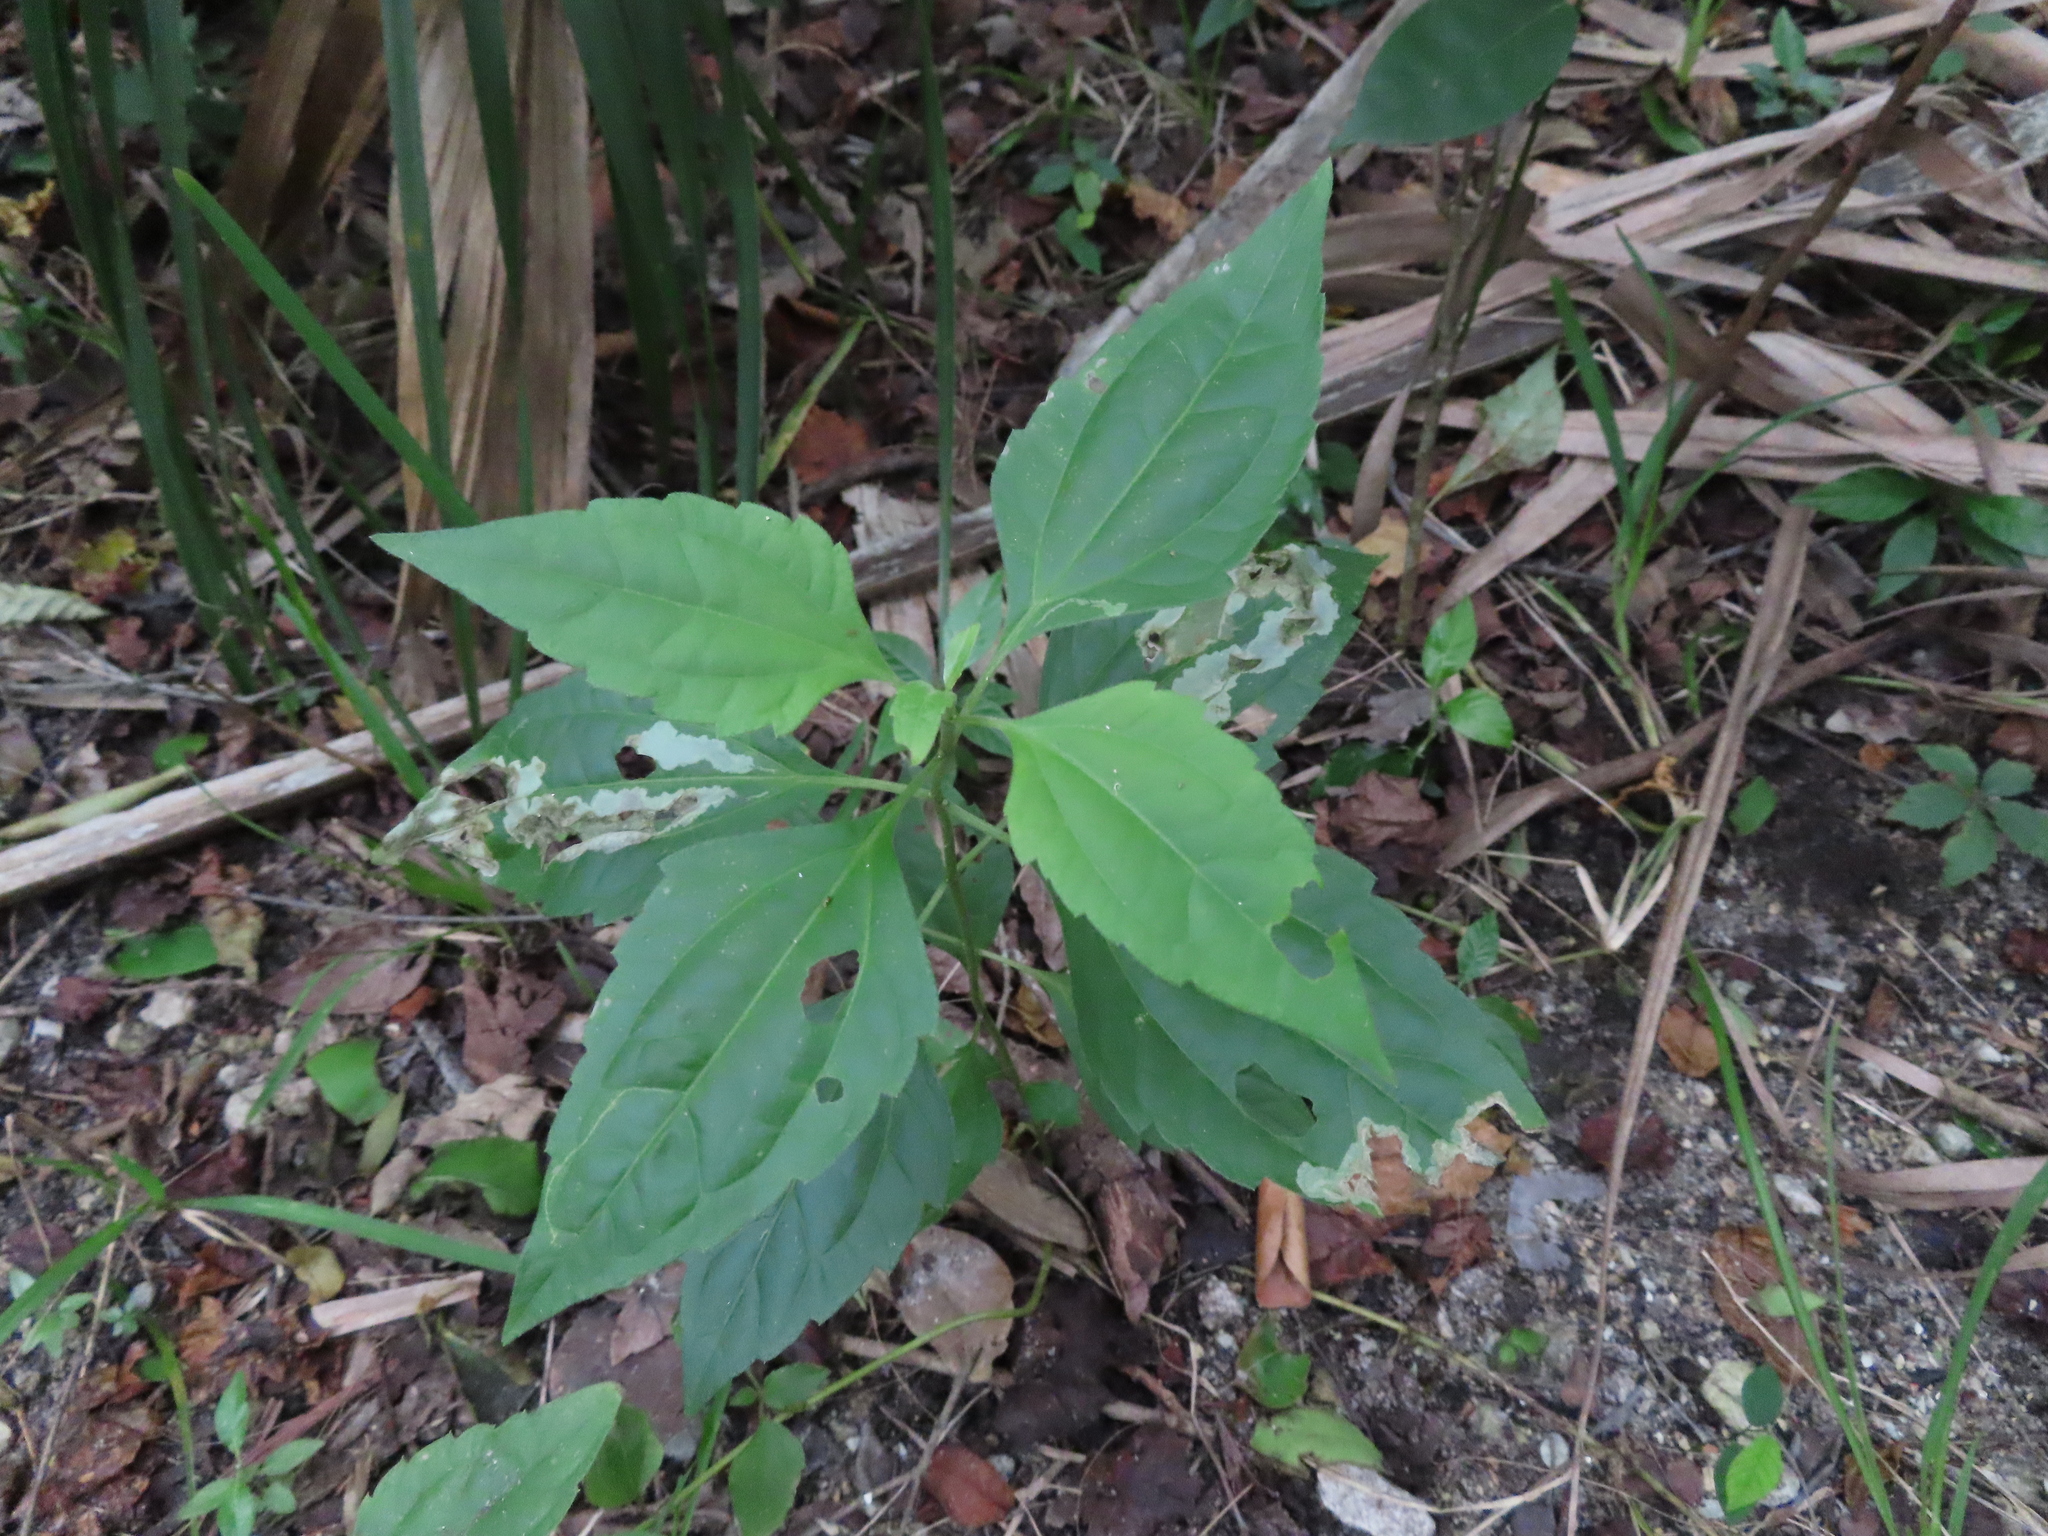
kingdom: Plantae
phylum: Tracheophyta
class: Magnoliopsida
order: Asterales
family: Asteraceae
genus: Chromolaena
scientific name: Chromolaena odorata
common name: Siamweed
